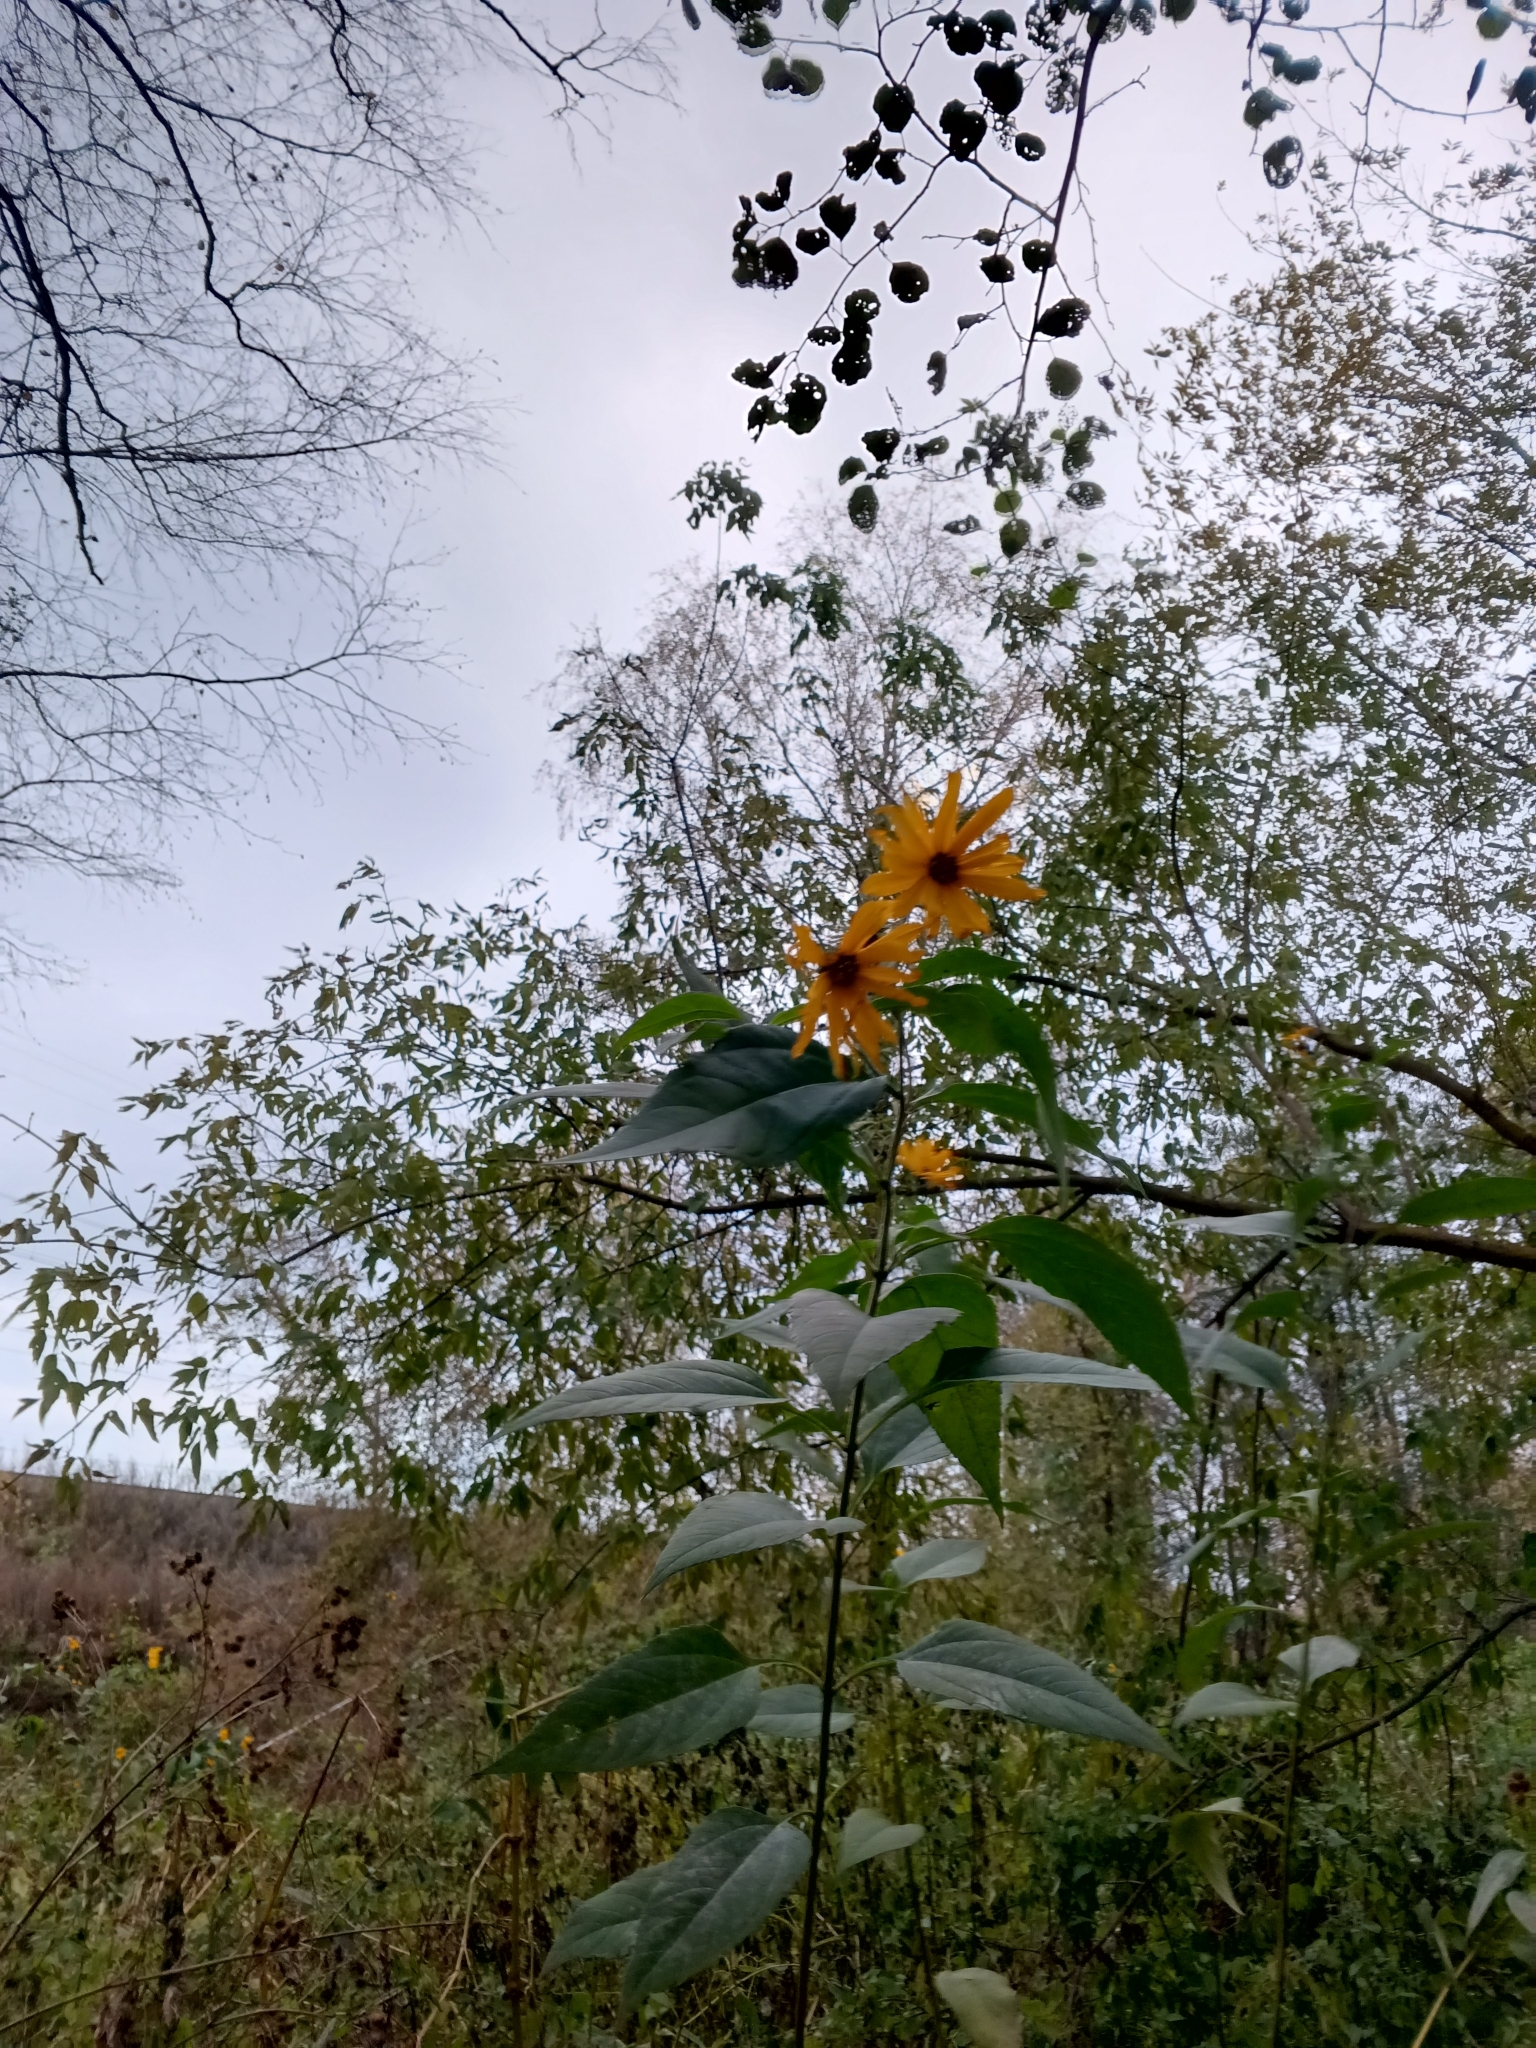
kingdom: Plantae
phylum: Tracheophyta
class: Magnoliopsida
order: Asterales
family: Asteraceae
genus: Helianthus
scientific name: Helianthus tuberosus
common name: Jerusalem artichoke
